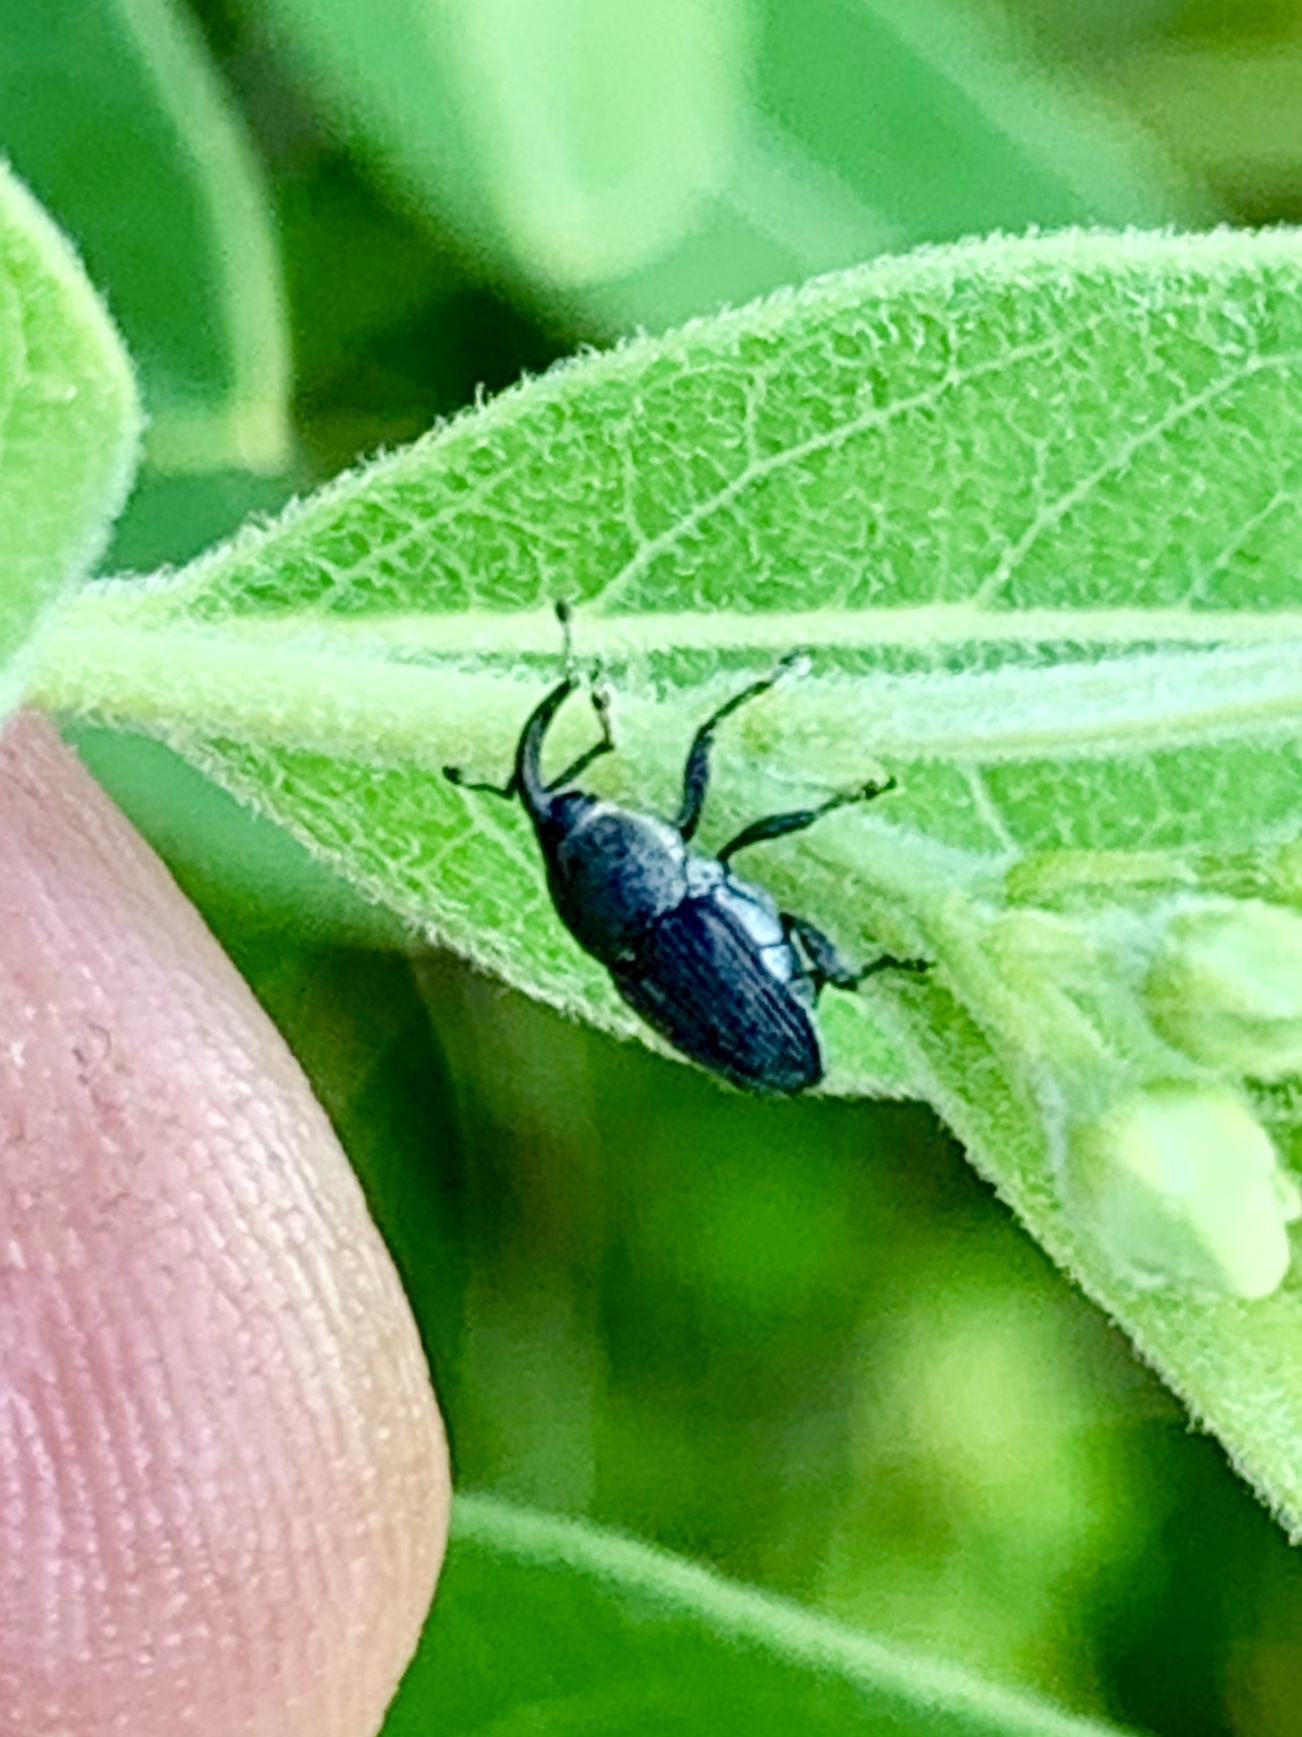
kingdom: Animalia
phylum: Arthropoda
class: Insecta
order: Coleoptera
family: Curculionidae
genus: Odontocorynus
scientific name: Odontocorynus umbellae
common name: Daisy flower weevil
